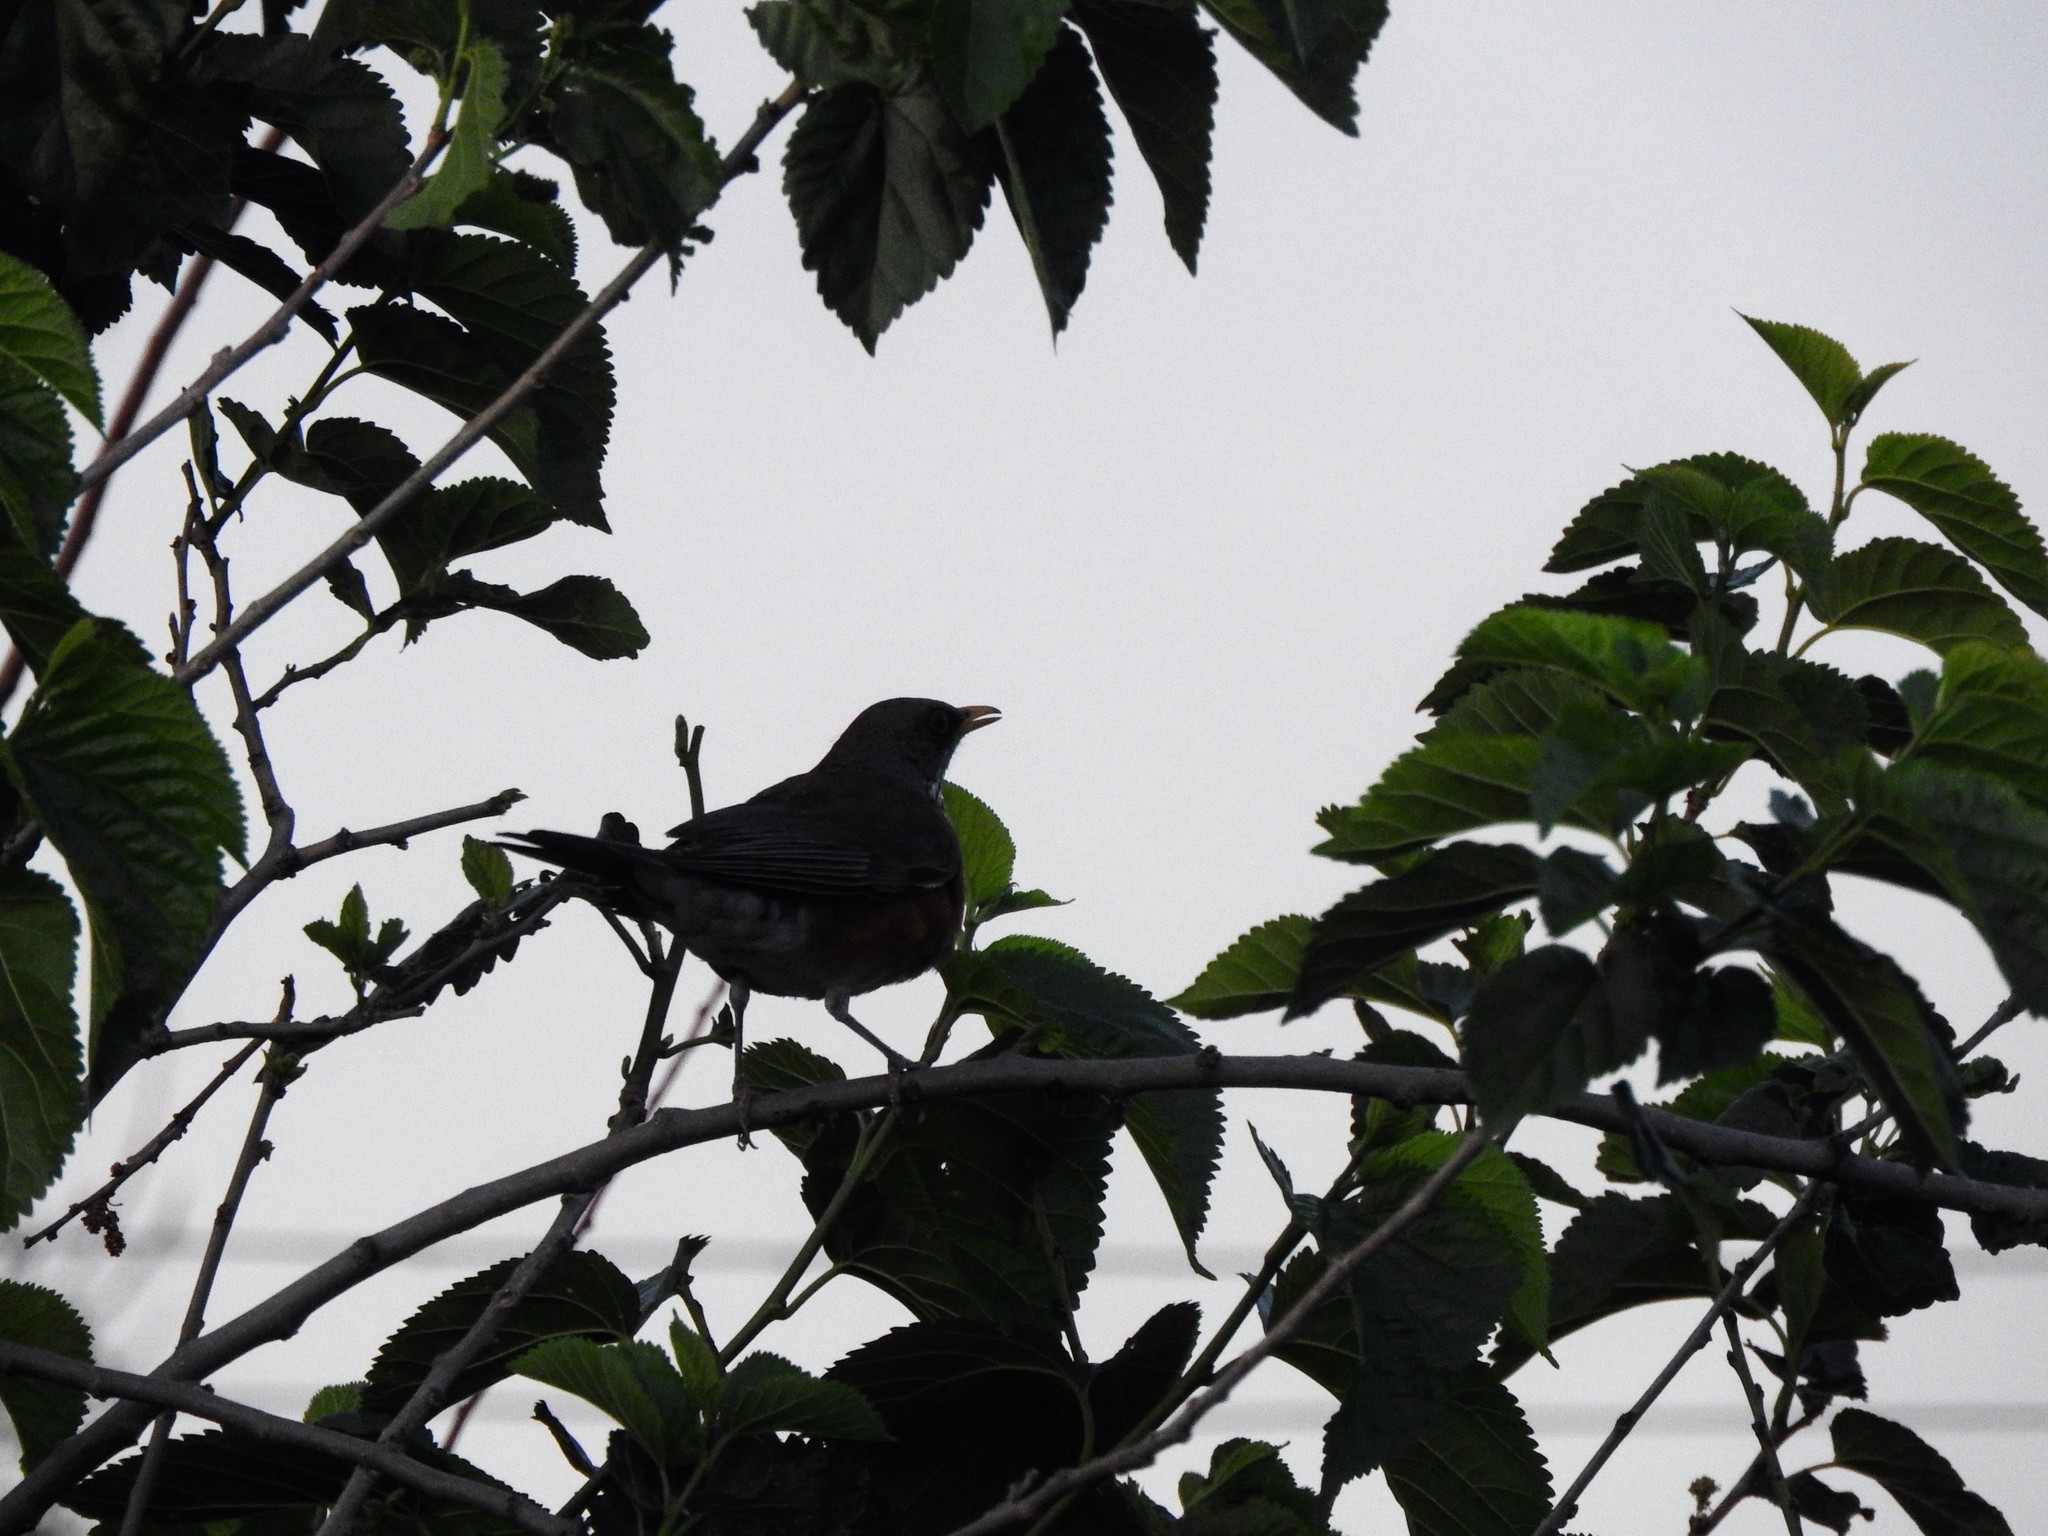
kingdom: Animalia
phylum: Chordata
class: Aves
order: Passeriformes
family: Turdidae
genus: Turdus
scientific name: Turdus rufopalliatus
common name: Rufous-backed robin
